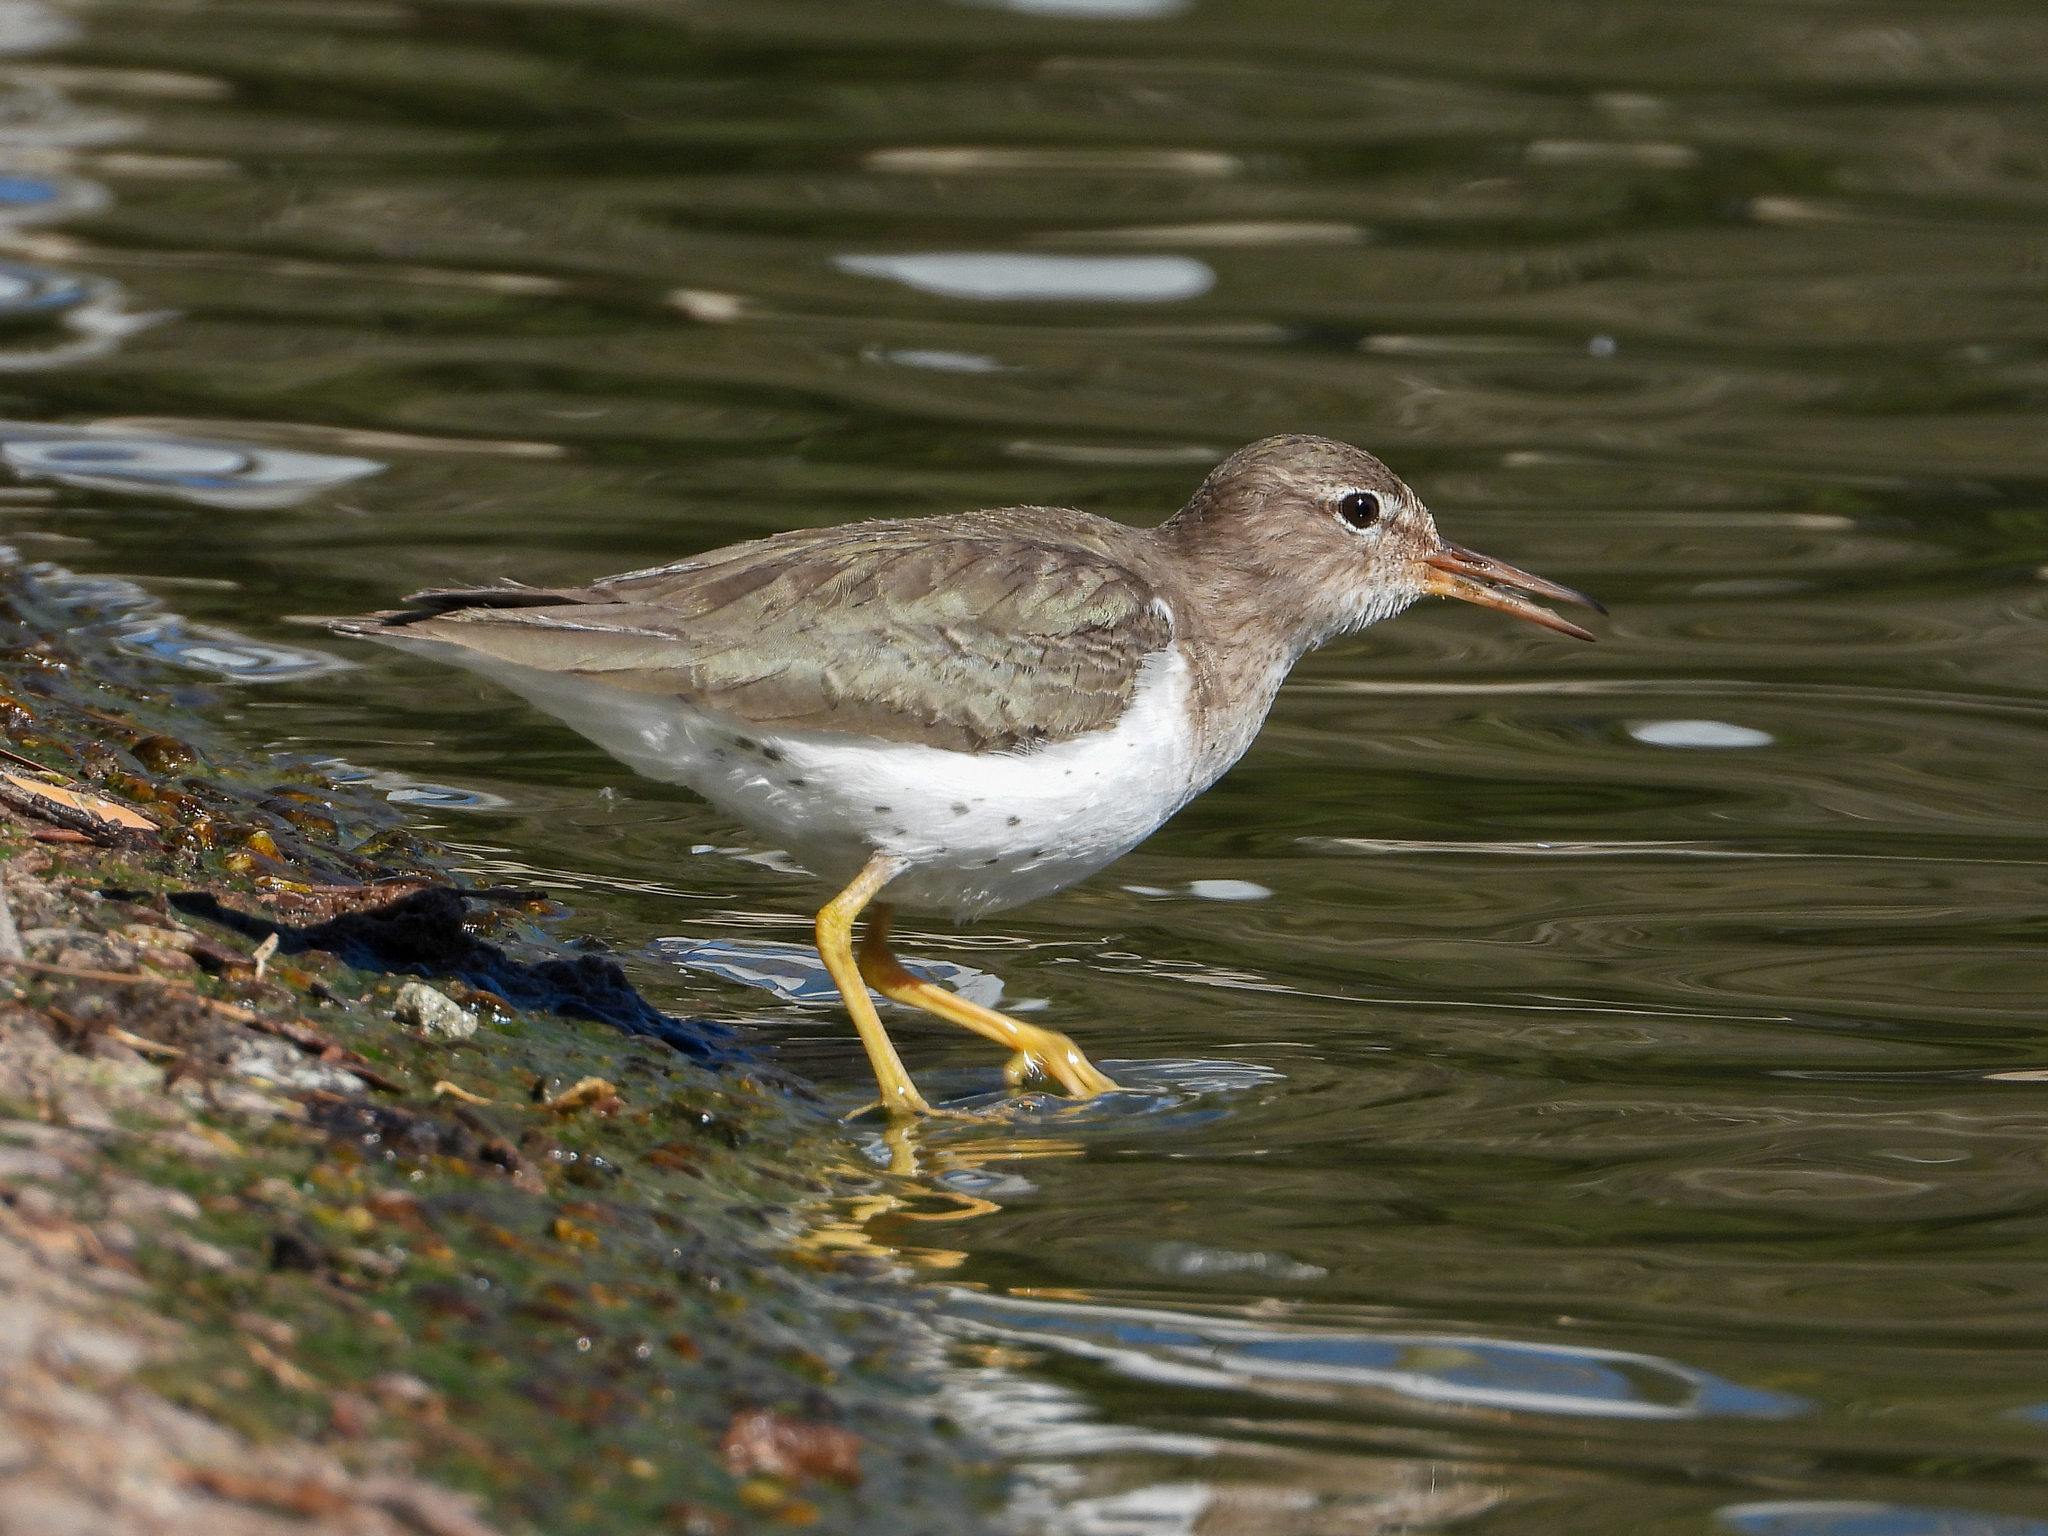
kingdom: Animalia
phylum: Chordata
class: Aves
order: Charadriiformes
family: Scolopacidae
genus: Actitis
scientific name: Actitis macularius
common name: Spotted sandpiper
